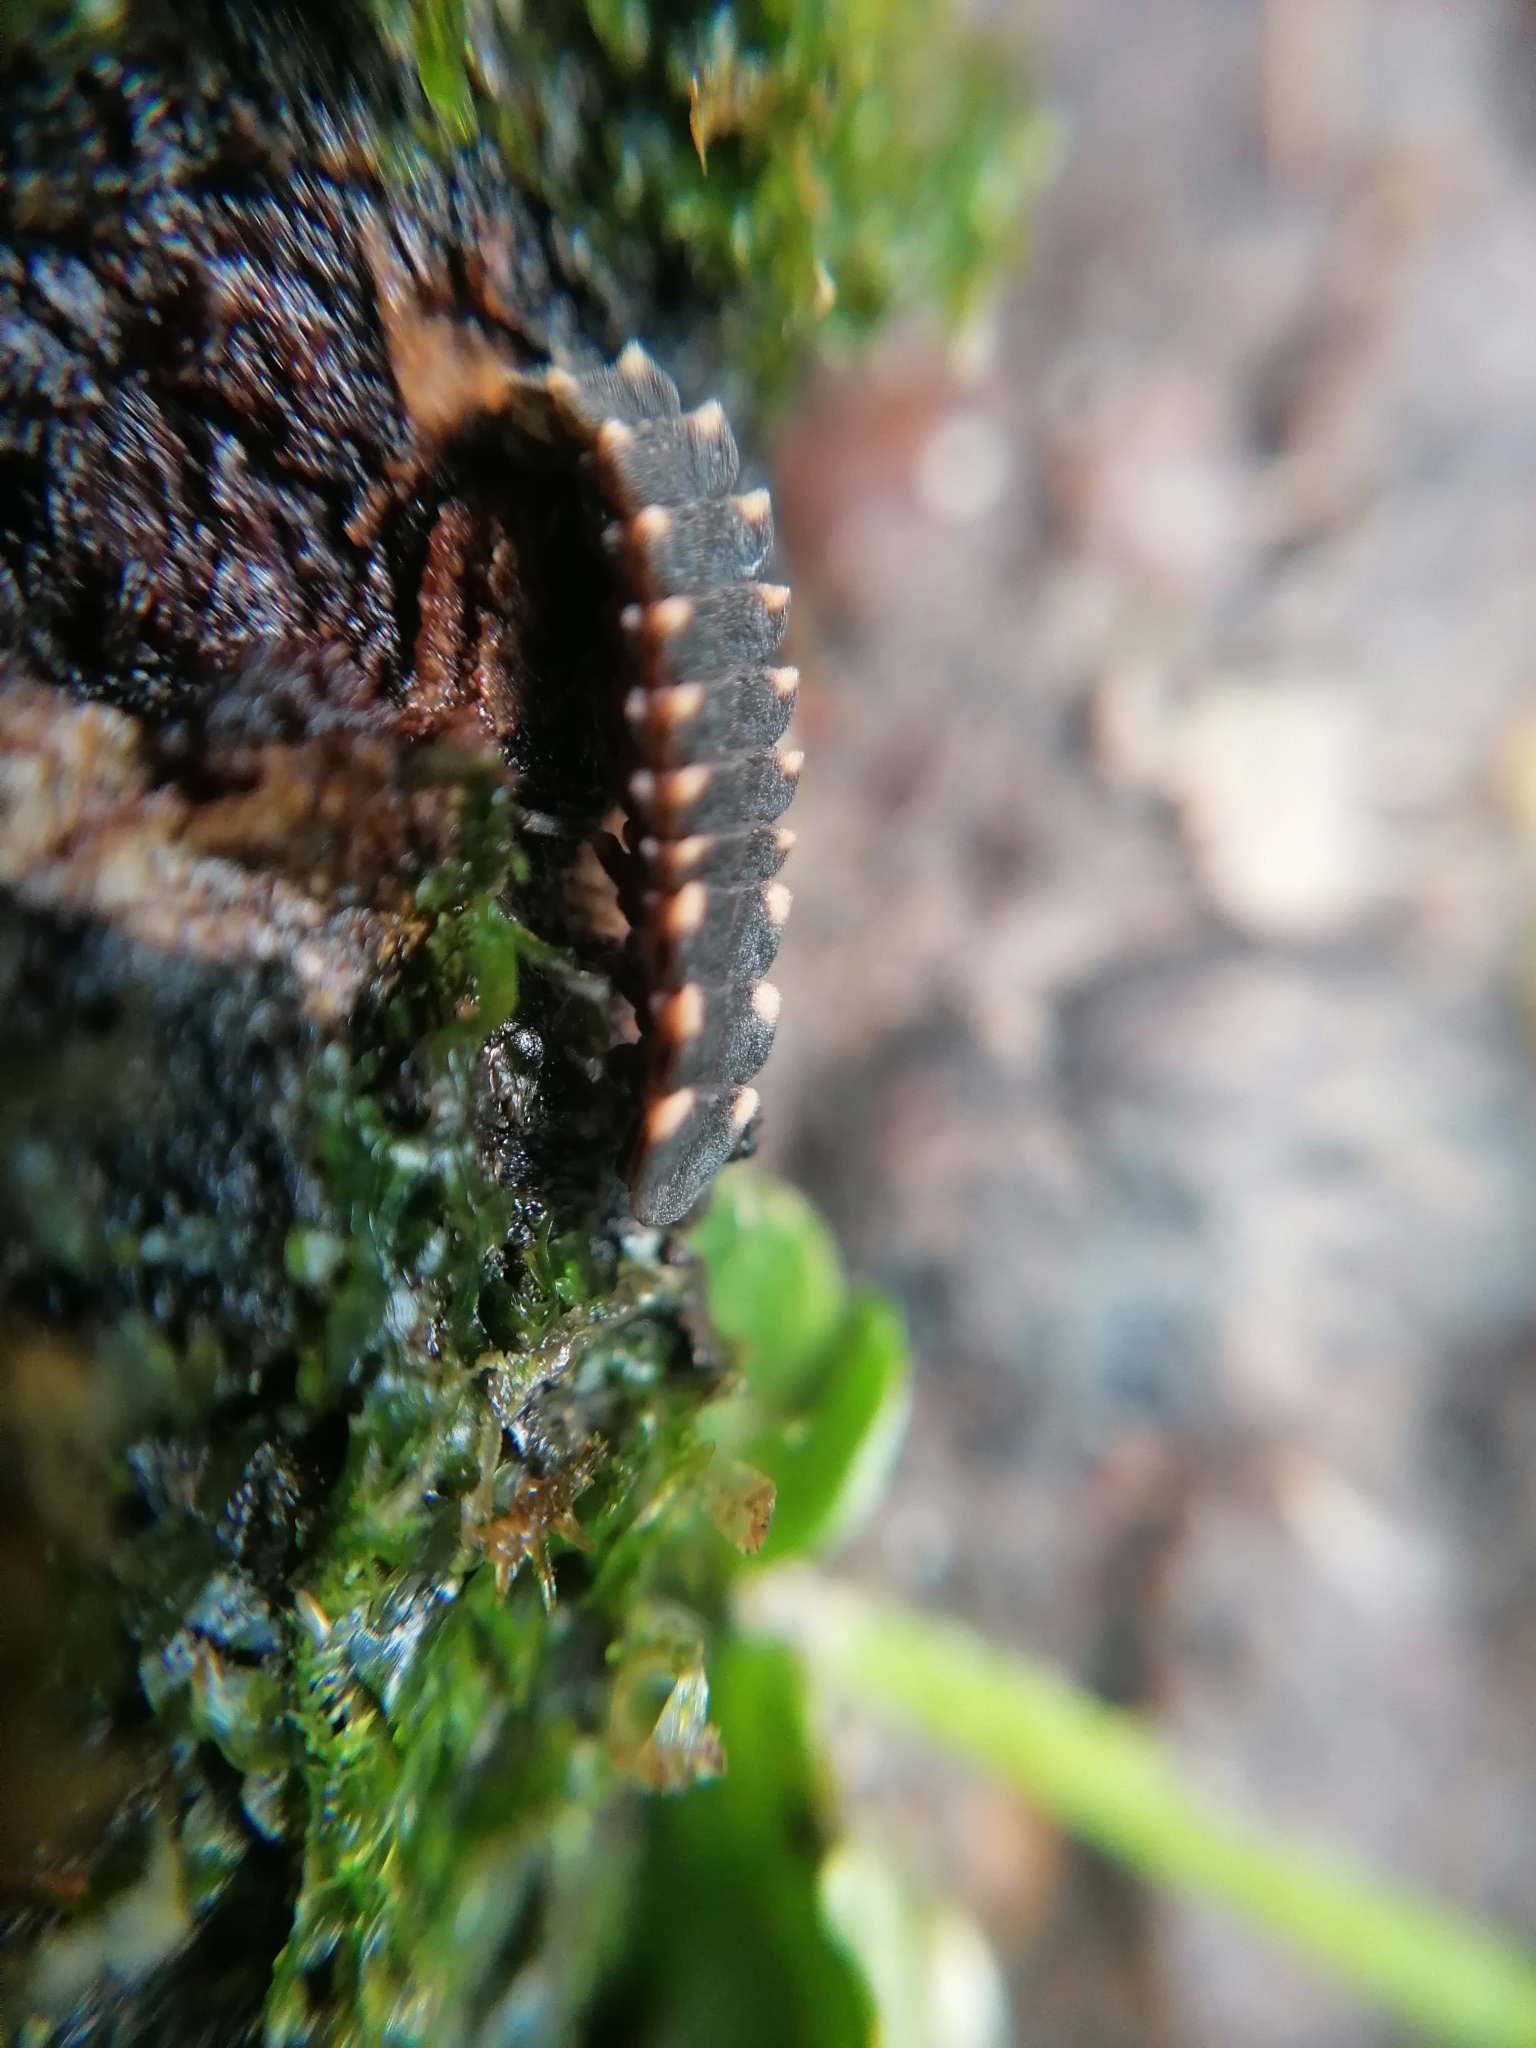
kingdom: Animalia
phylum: Arthropoda
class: Insecta
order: Coleoptera
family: Lampyridae
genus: Lampyris
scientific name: Lampyris noctiluca
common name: Glow-worm
